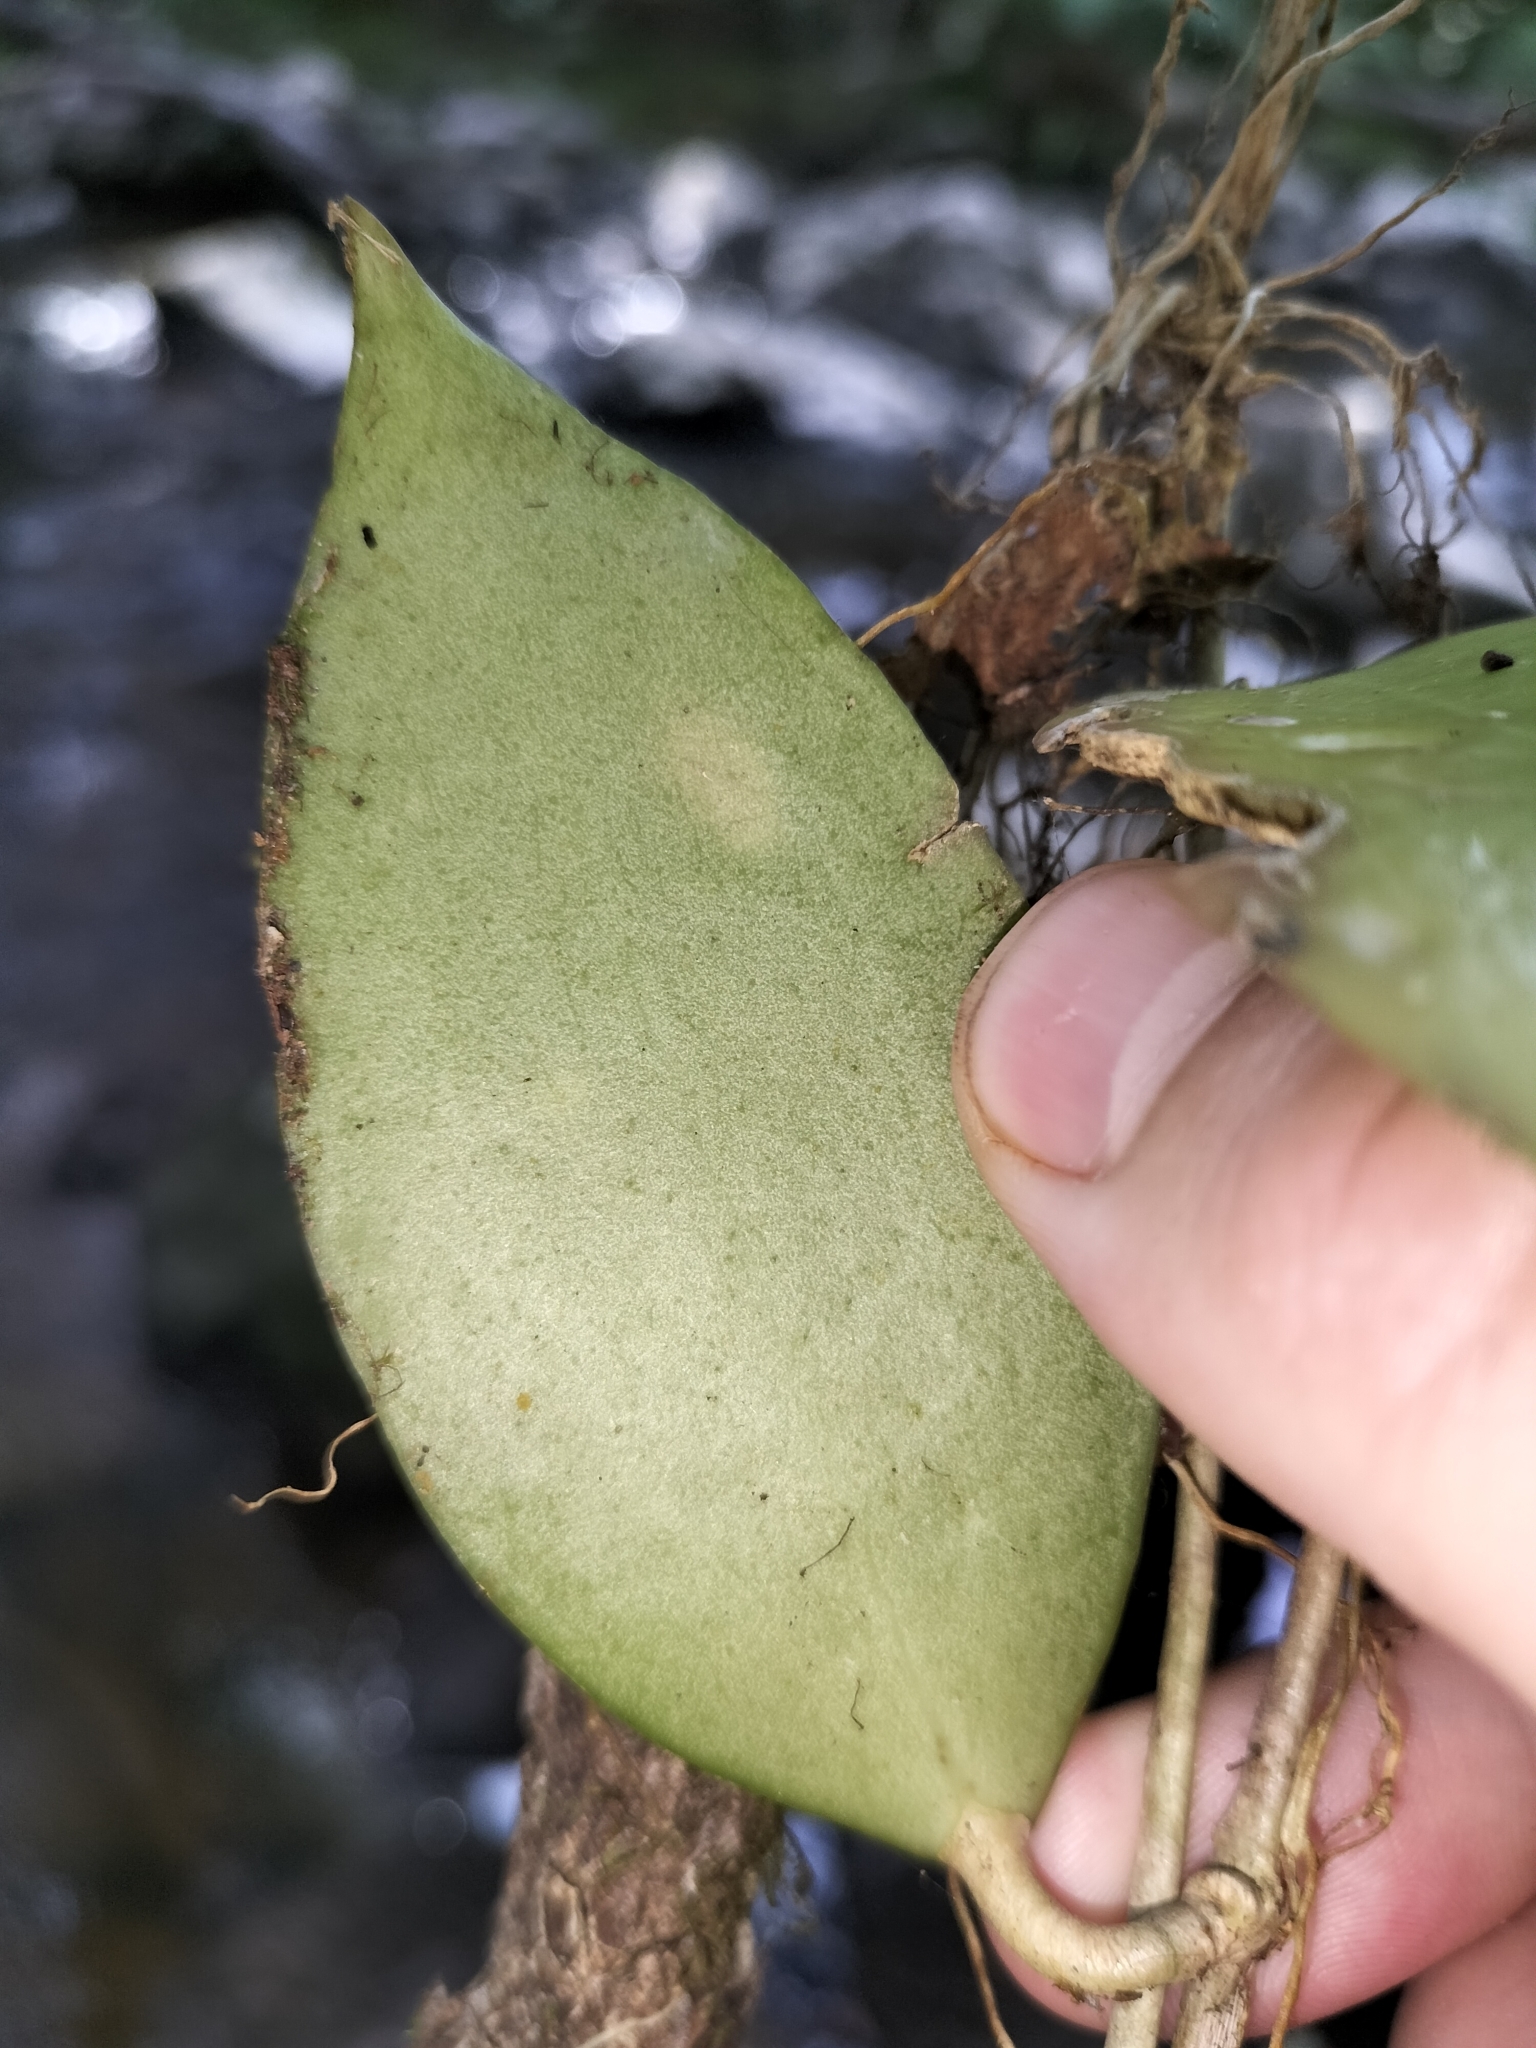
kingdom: Plantae
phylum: Tracheophyta
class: Magnoliopsida
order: Gentianales
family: Apocynaceae
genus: Hoya
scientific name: Hoya pottsii
